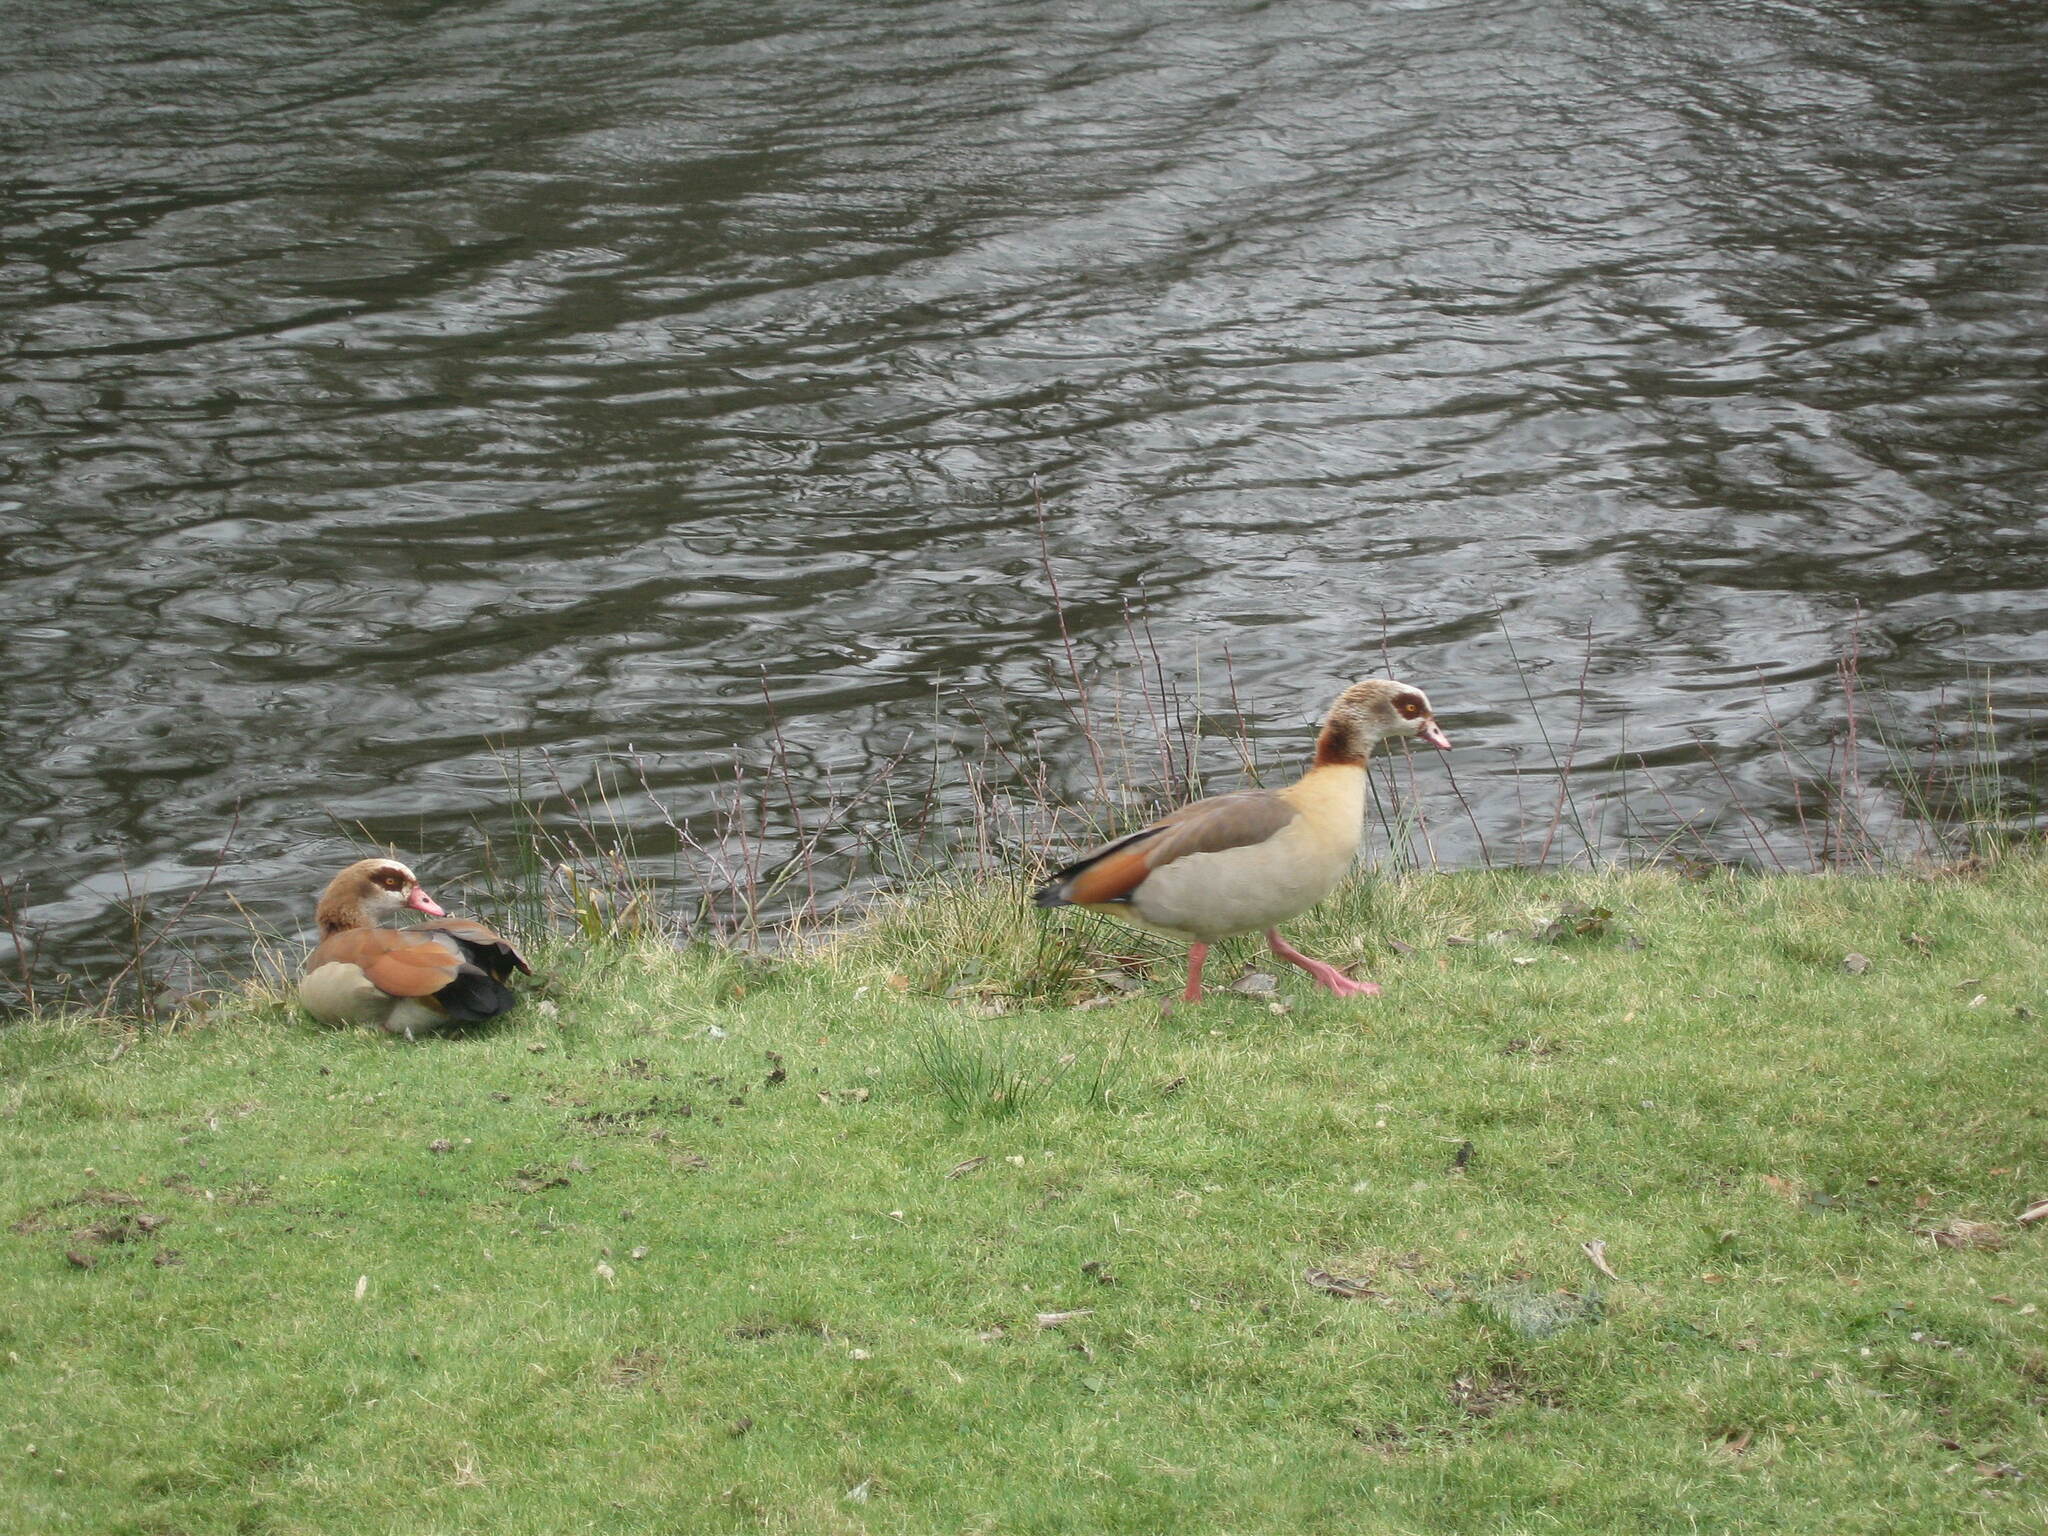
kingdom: Animalia
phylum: Chordata
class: Aves
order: Anseriformes
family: Anatidae
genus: Alopochen
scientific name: Alopochen aegyptiaca
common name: Egyptian goose
